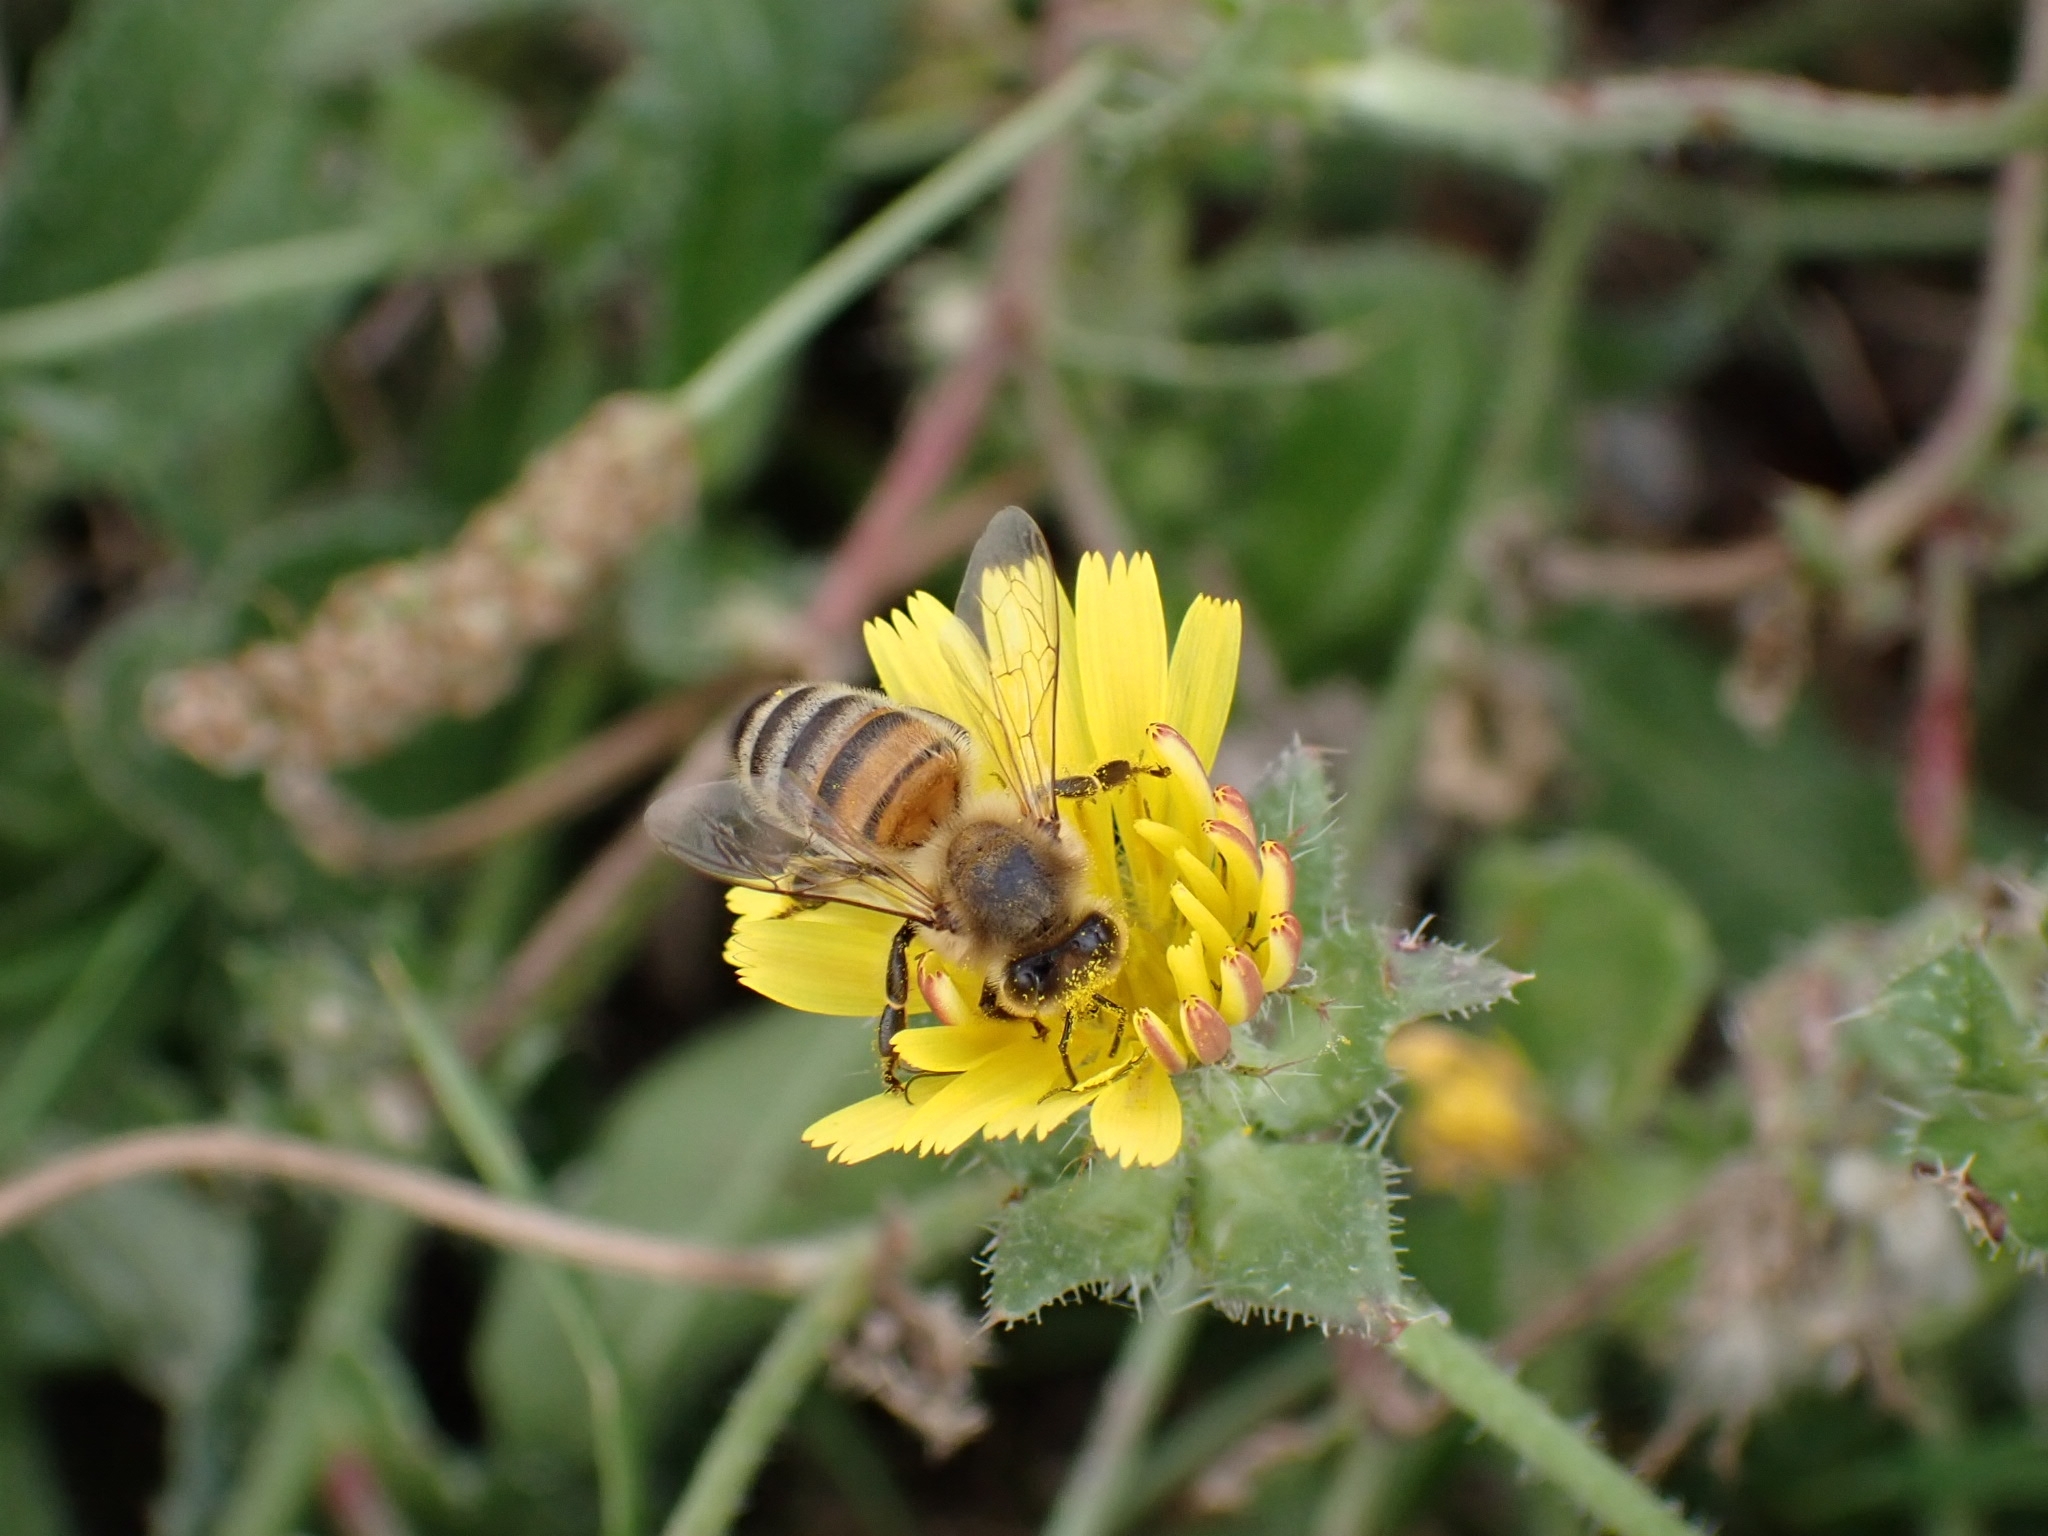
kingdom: Animalia
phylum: Arthropoda
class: Insecta
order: Hymenoptera
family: Apidae
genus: Apis
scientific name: Apis mellifera
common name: Honey bee
